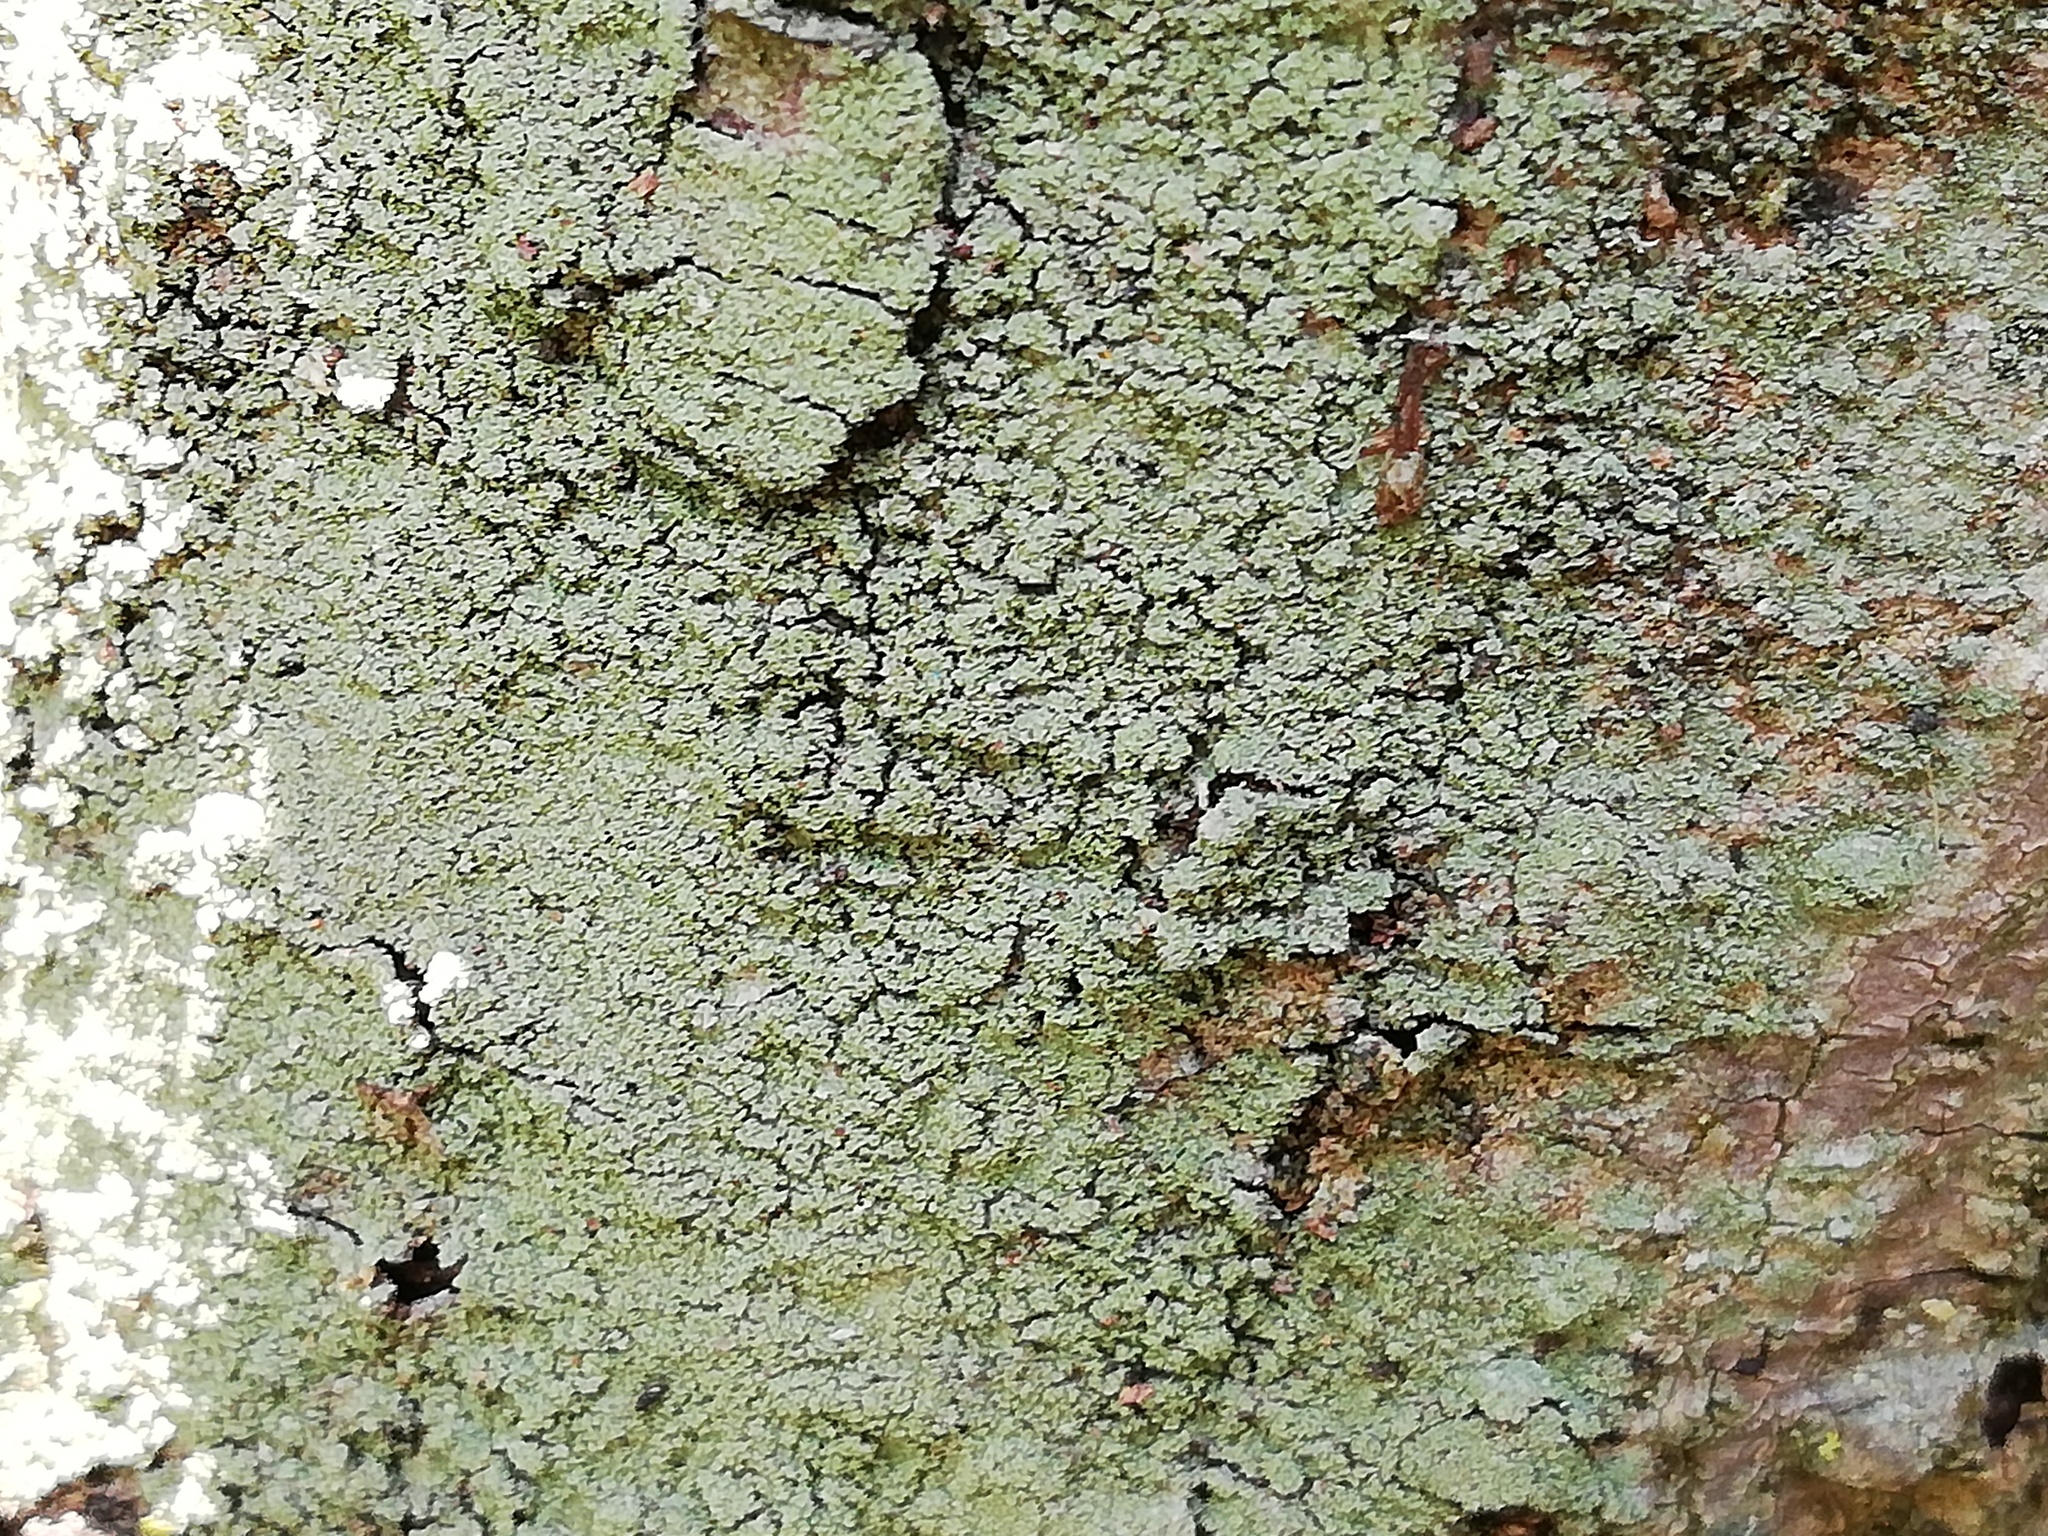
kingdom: Fungi
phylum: Ascomycota
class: Lecanoromycetes
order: Lecanorales
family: Ramalinaceae
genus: Phyllopsora
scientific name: Phyllopsora parvifolia
